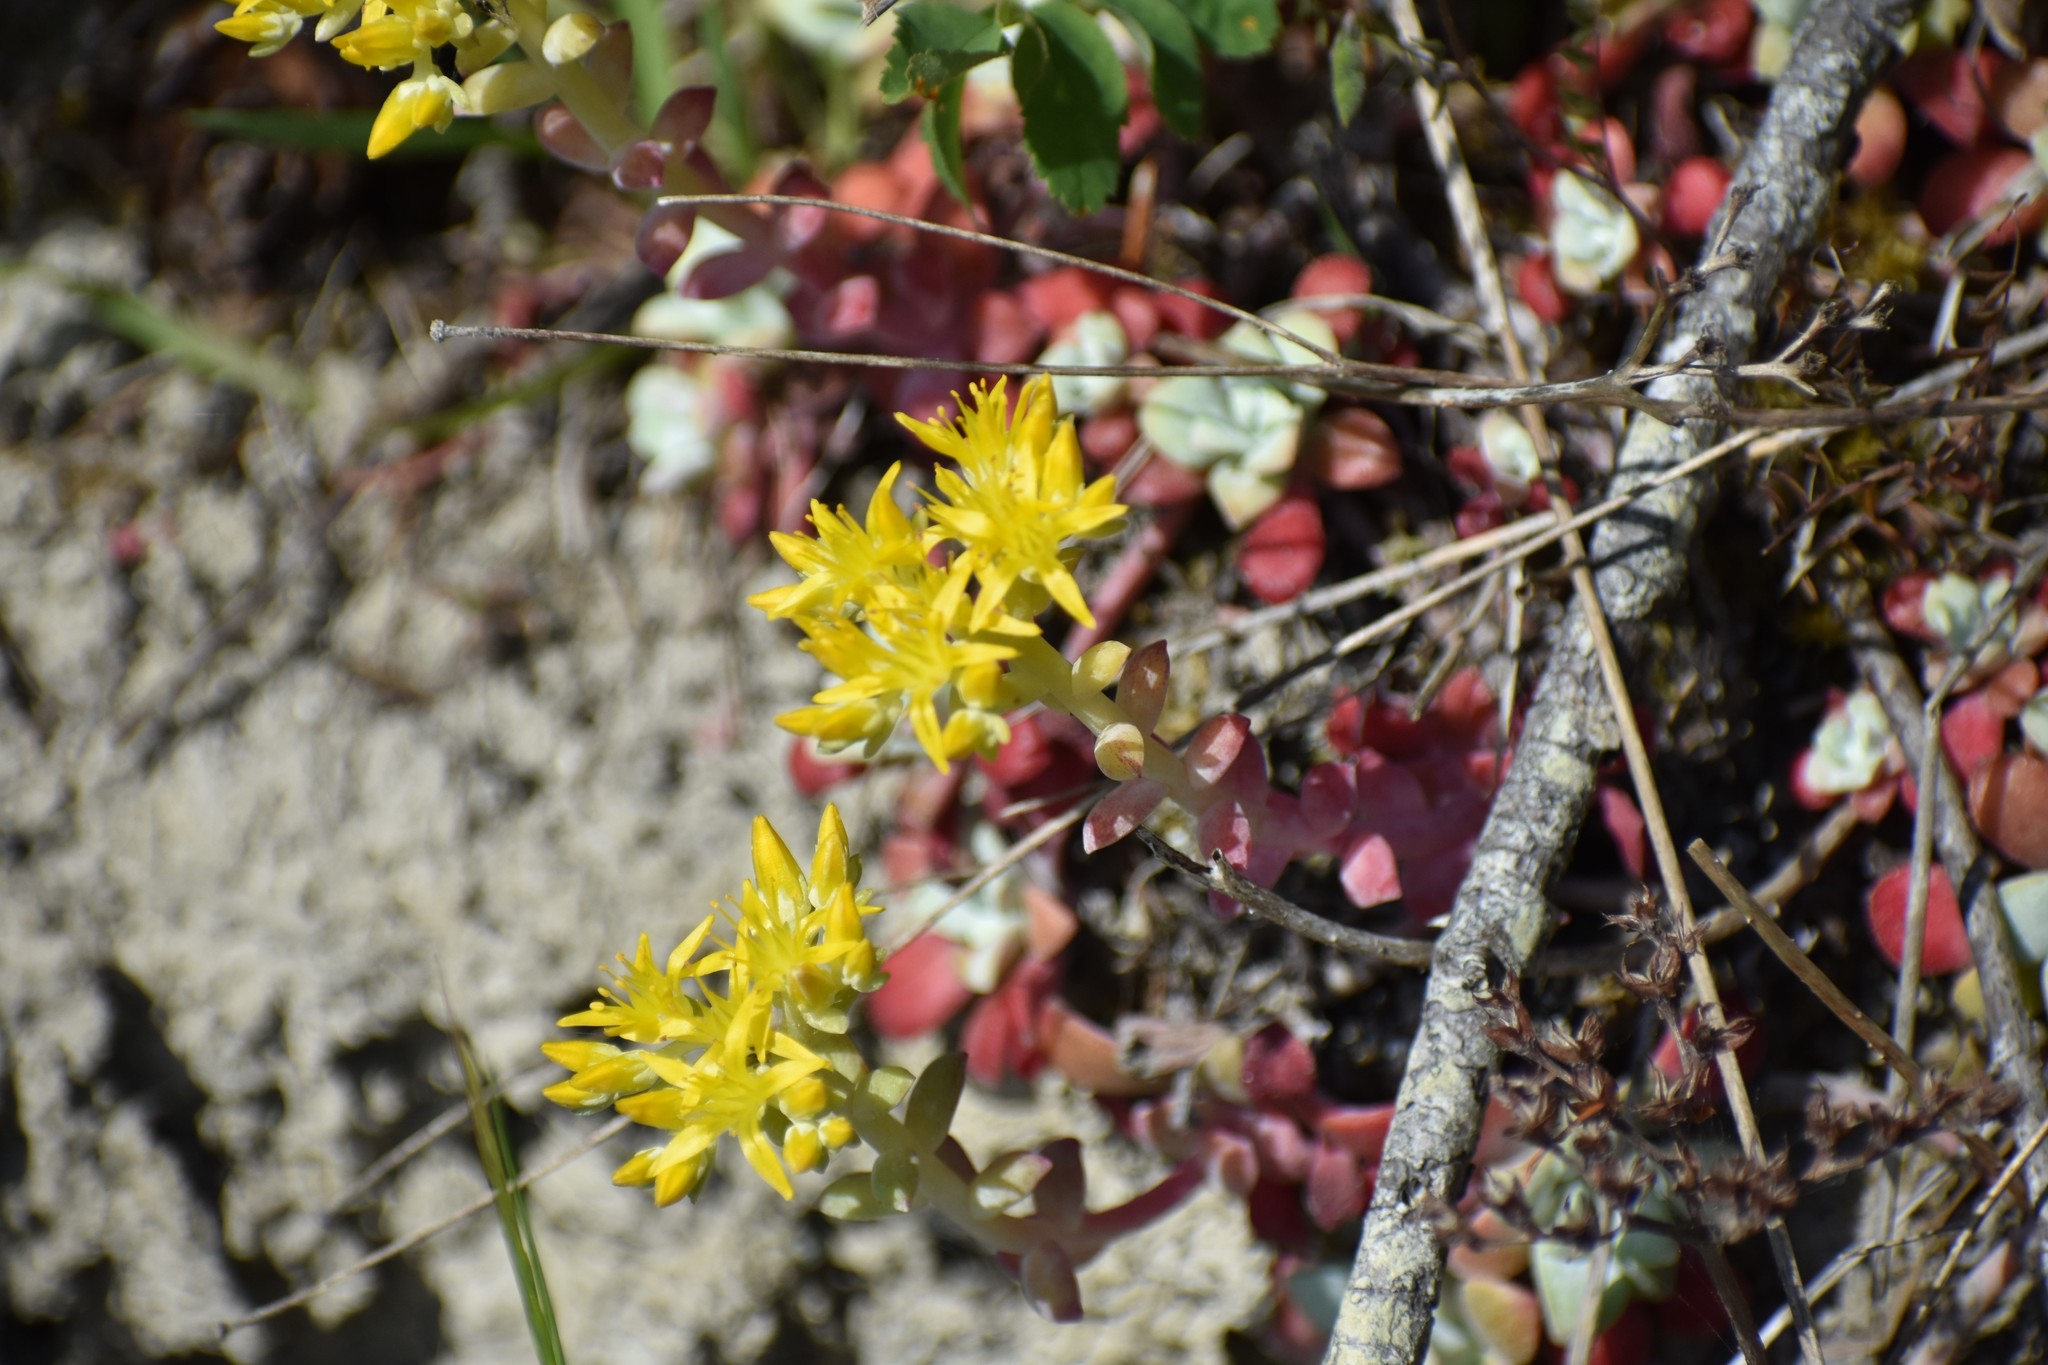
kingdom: Plantae
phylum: Tracheophyta
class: Magnoliopsida
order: Saxifragales
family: Crassulaceae
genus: Sedum
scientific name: Sedum spathulifolium
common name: Colorado stonecrop
